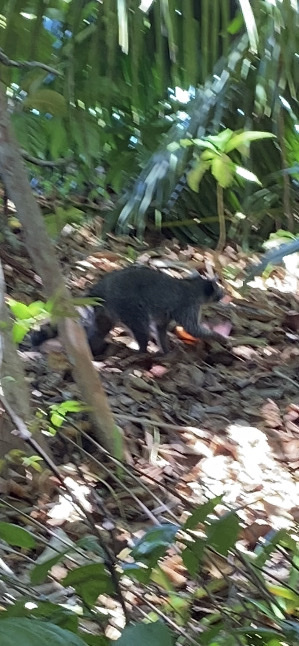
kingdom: Animalia
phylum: Chordata
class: Mammalia
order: Carnivora
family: Procyonidae
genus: Procyon
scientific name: Procyon lotor
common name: Raccoon
